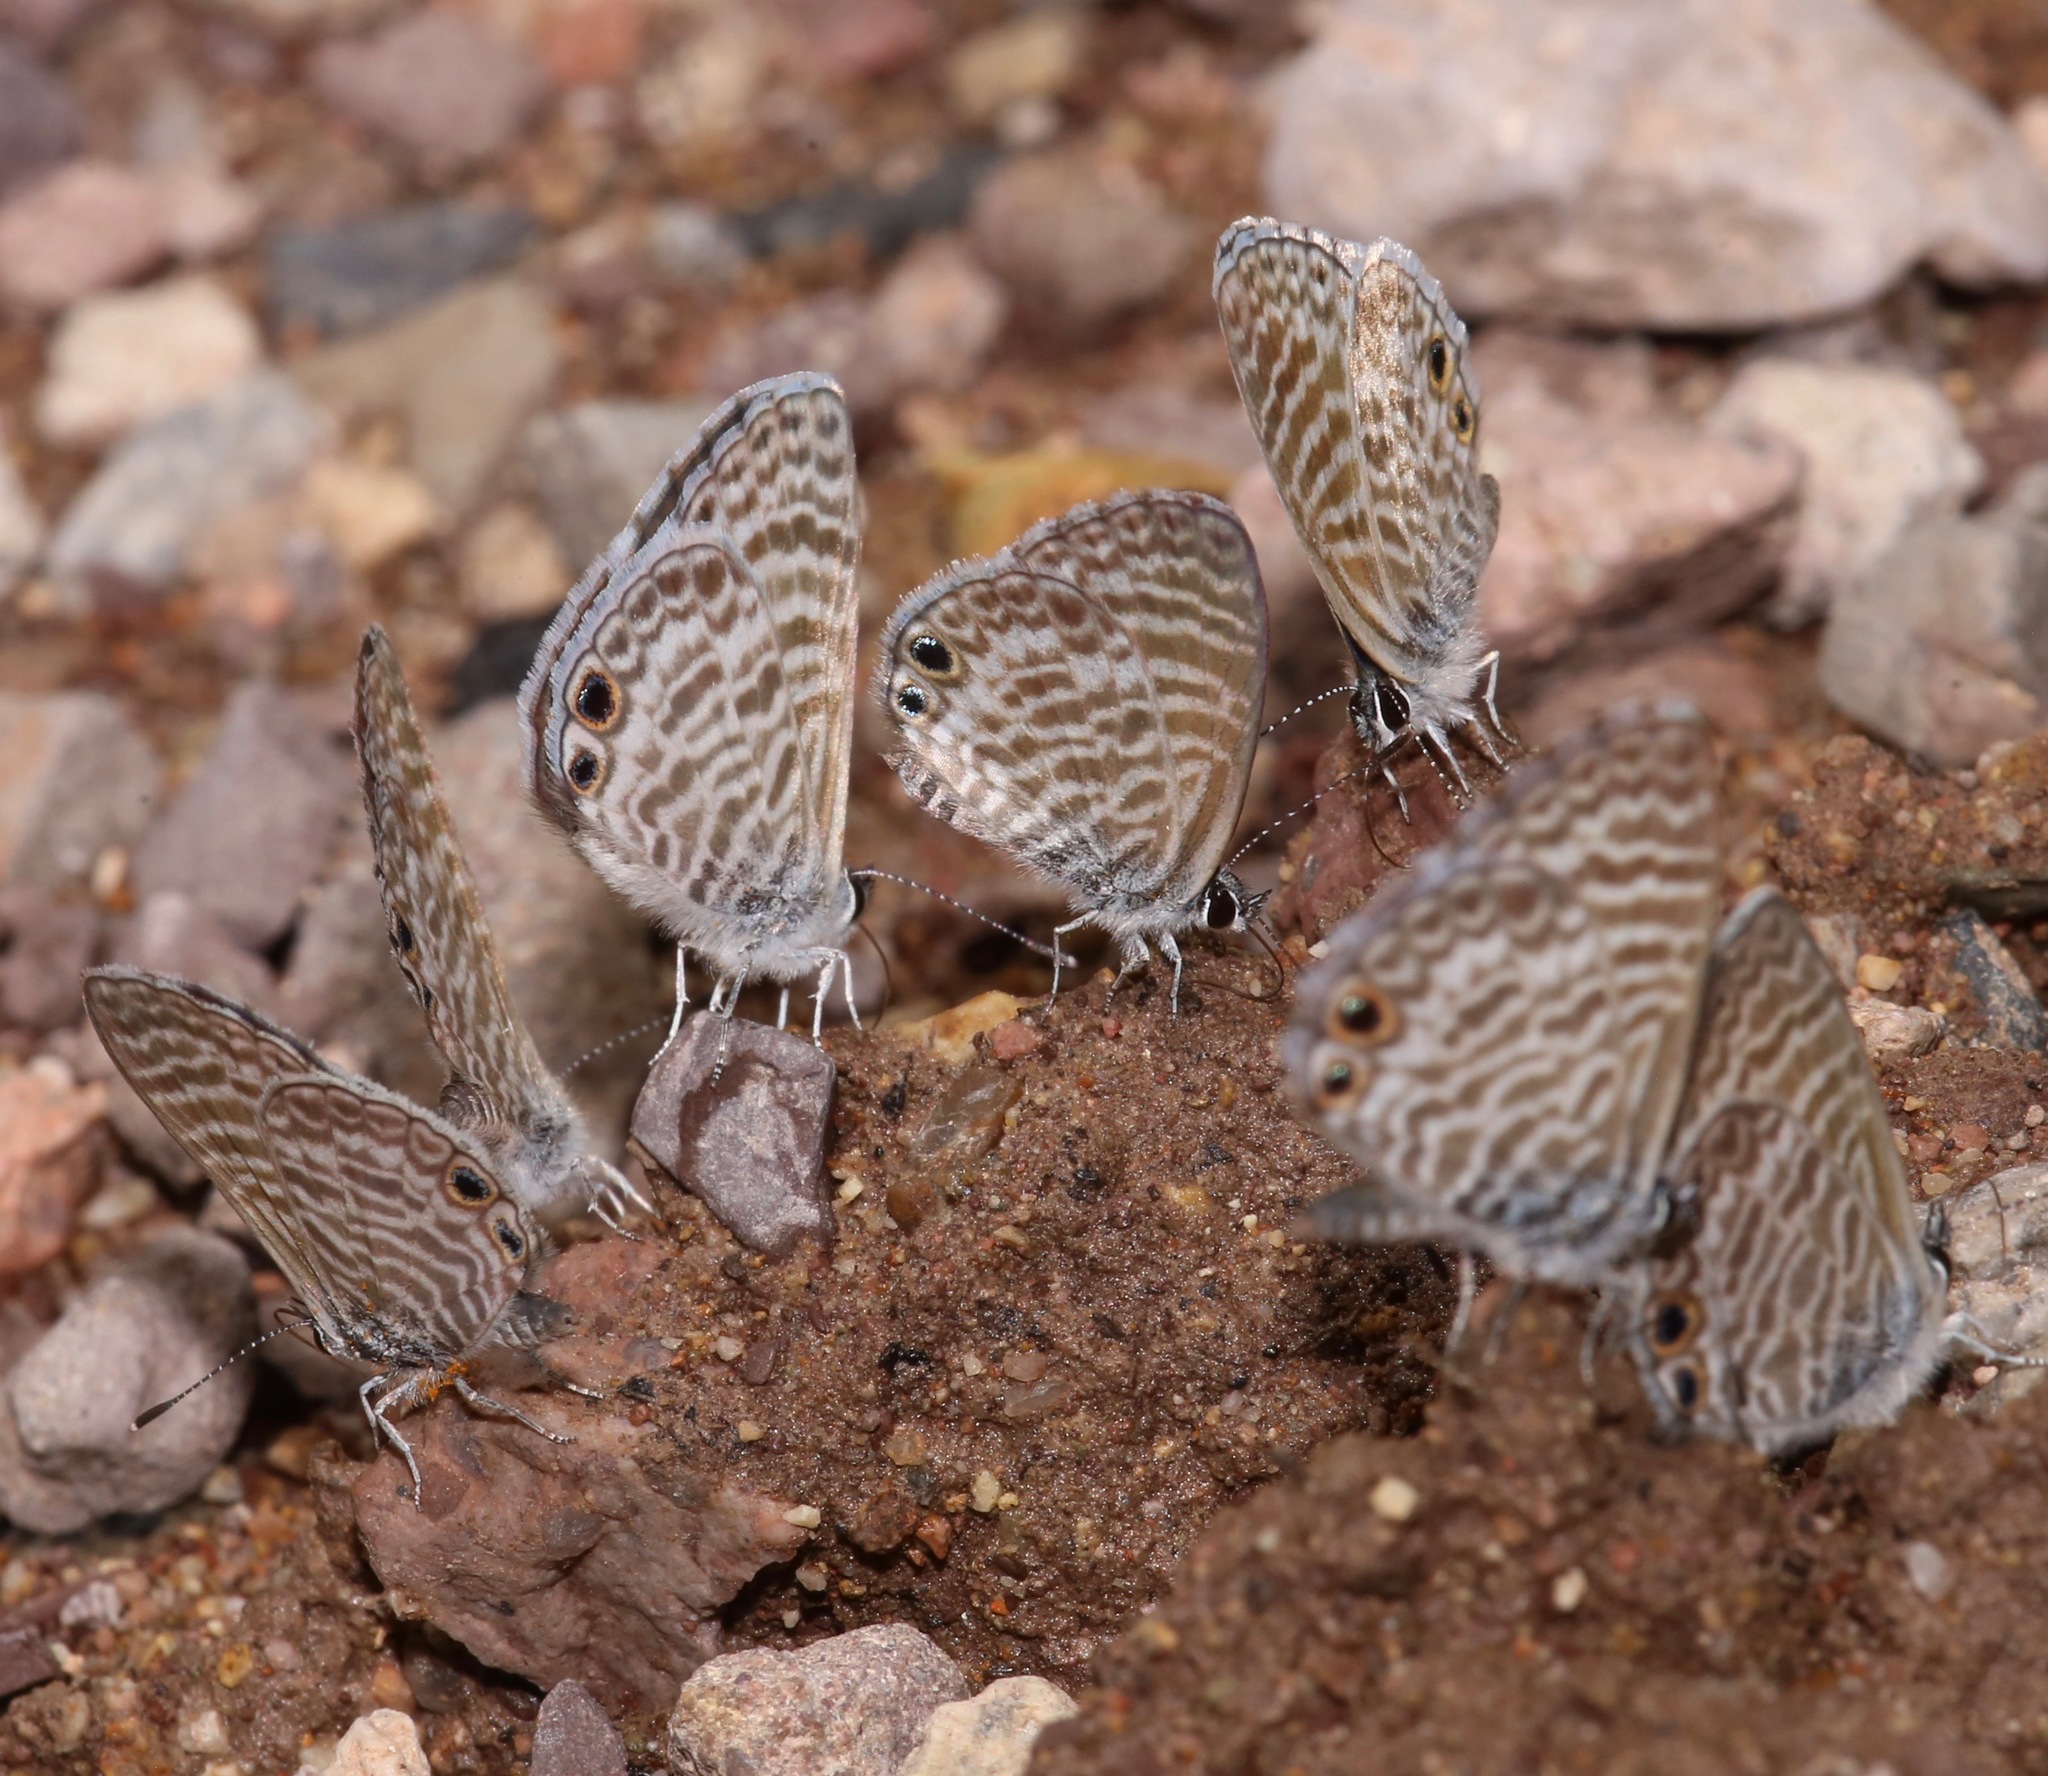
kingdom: Animalia
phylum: Arthropoda
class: Insecta
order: Lepidoptera
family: Lycaenidae
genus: Leptotes
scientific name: Leptotes marina
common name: Marine blue
